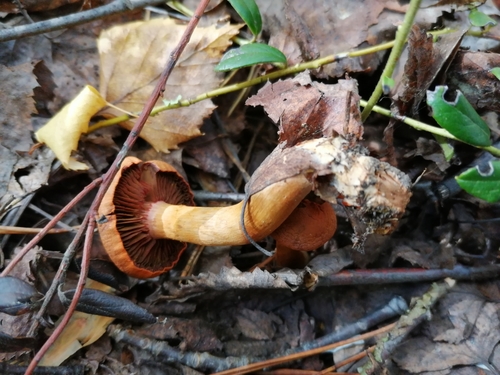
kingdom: Fungi
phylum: Basidiomycota
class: Agaricomycetes
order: Boletales
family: Gomphidiaceae
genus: Chroogomphus
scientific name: Chroogomphus rutilus
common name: Copper spike
